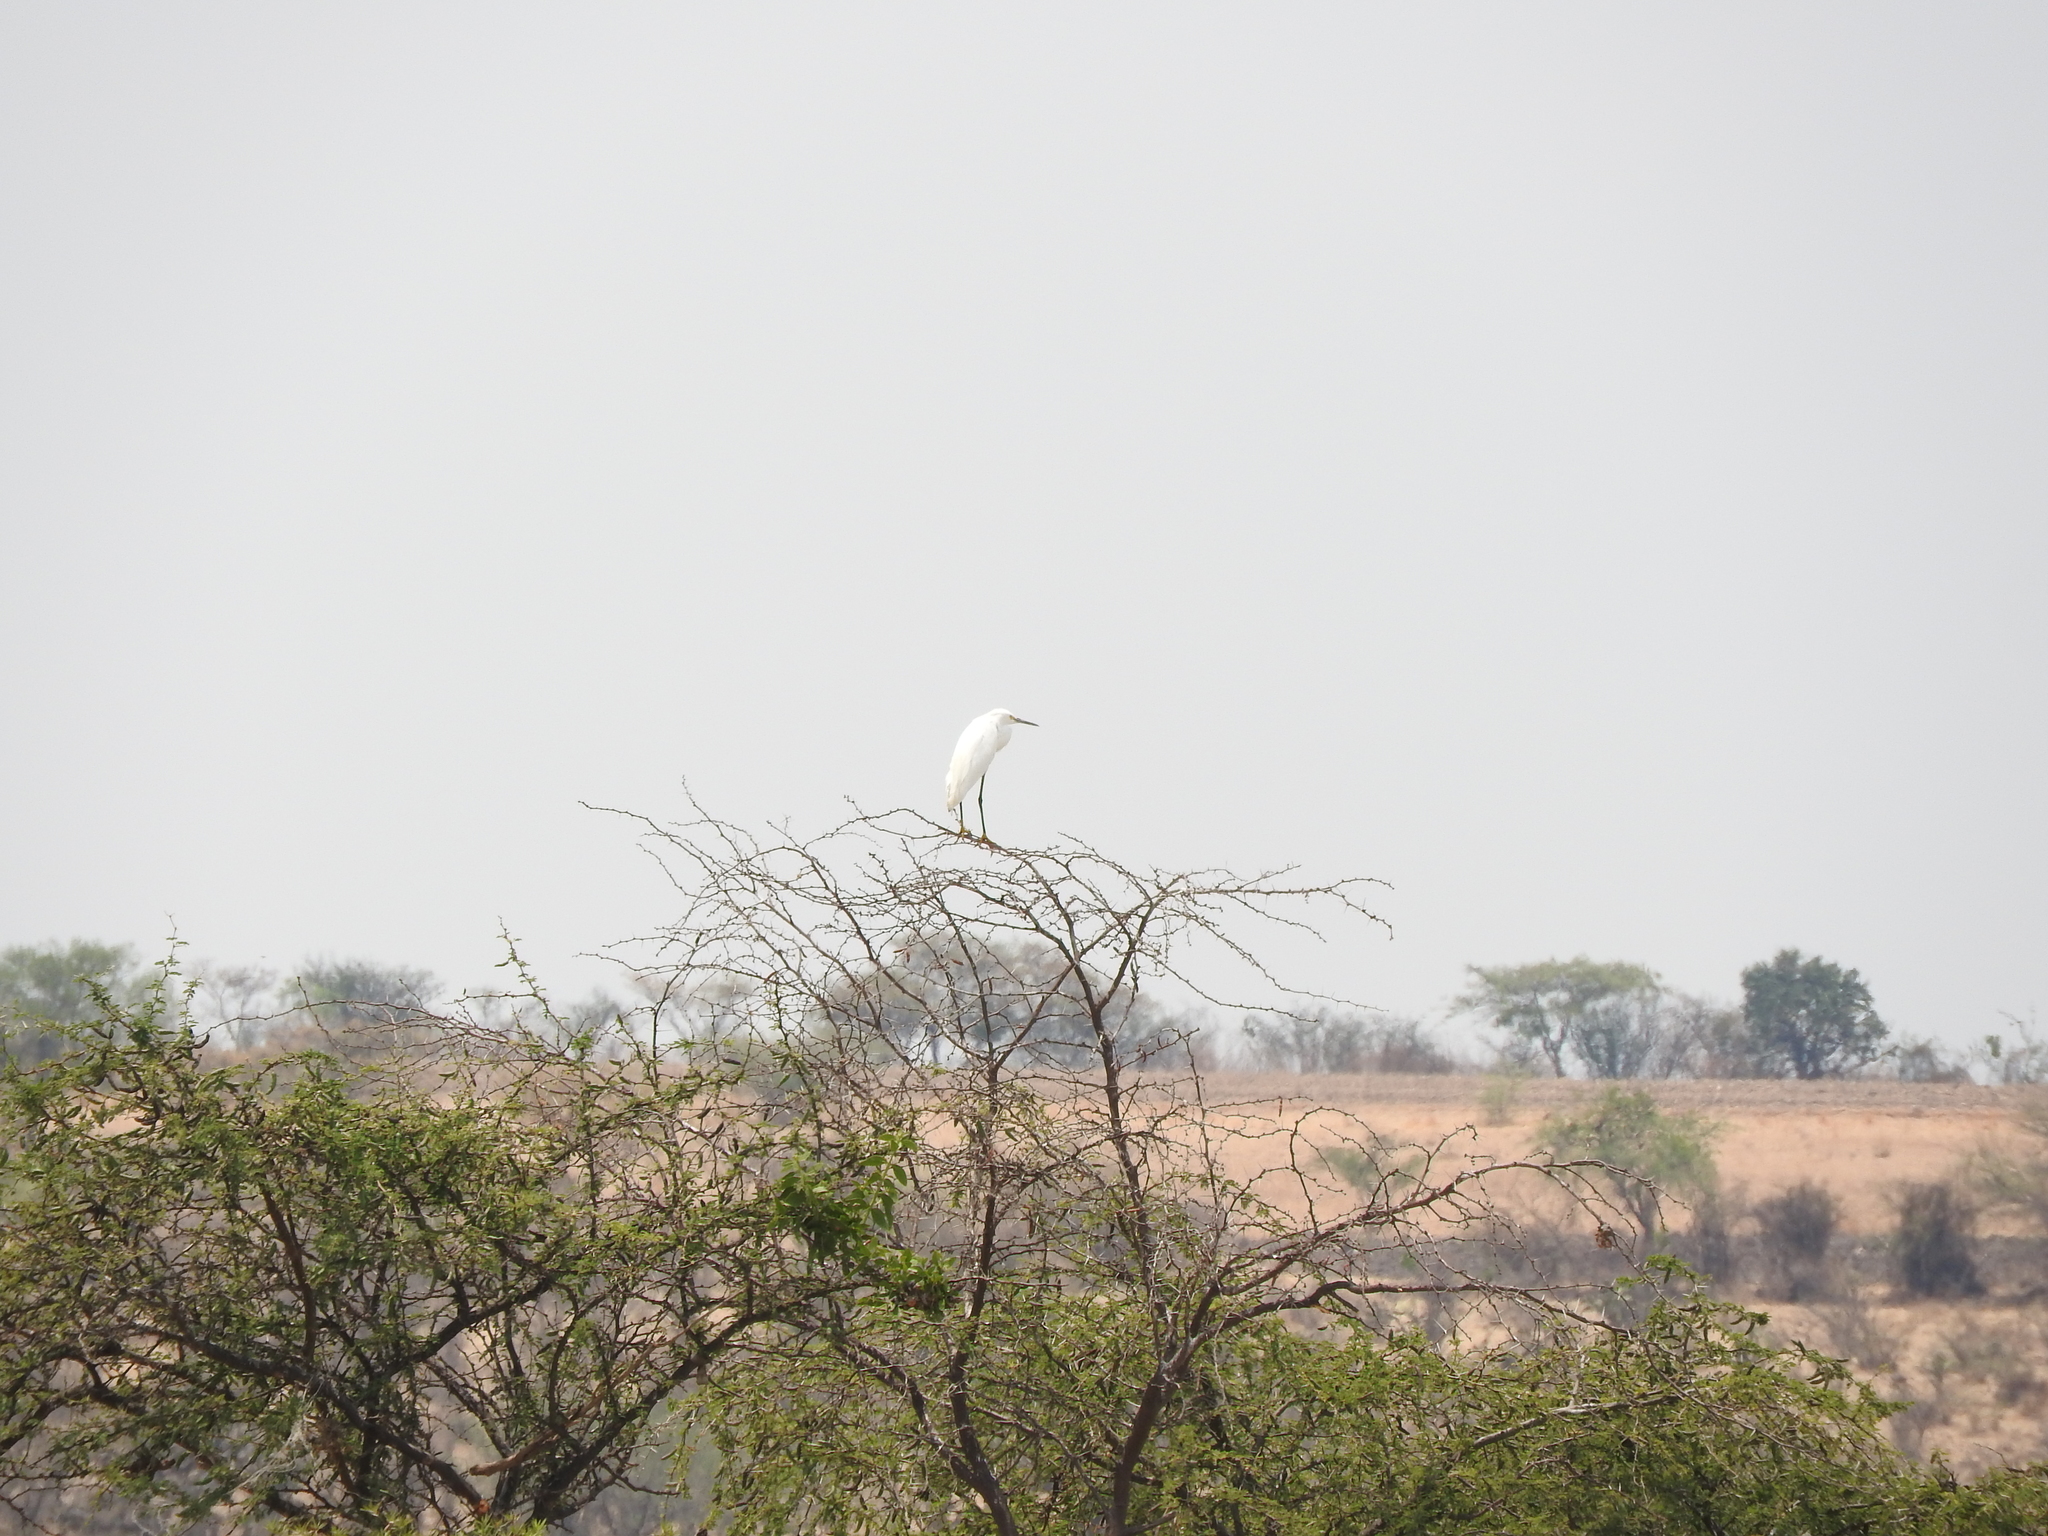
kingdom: Animalia
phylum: Chordata
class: Aves
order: Pelecaniformes
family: Ardeidae
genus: Egretta
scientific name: Egretta thula
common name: Snowy egret
